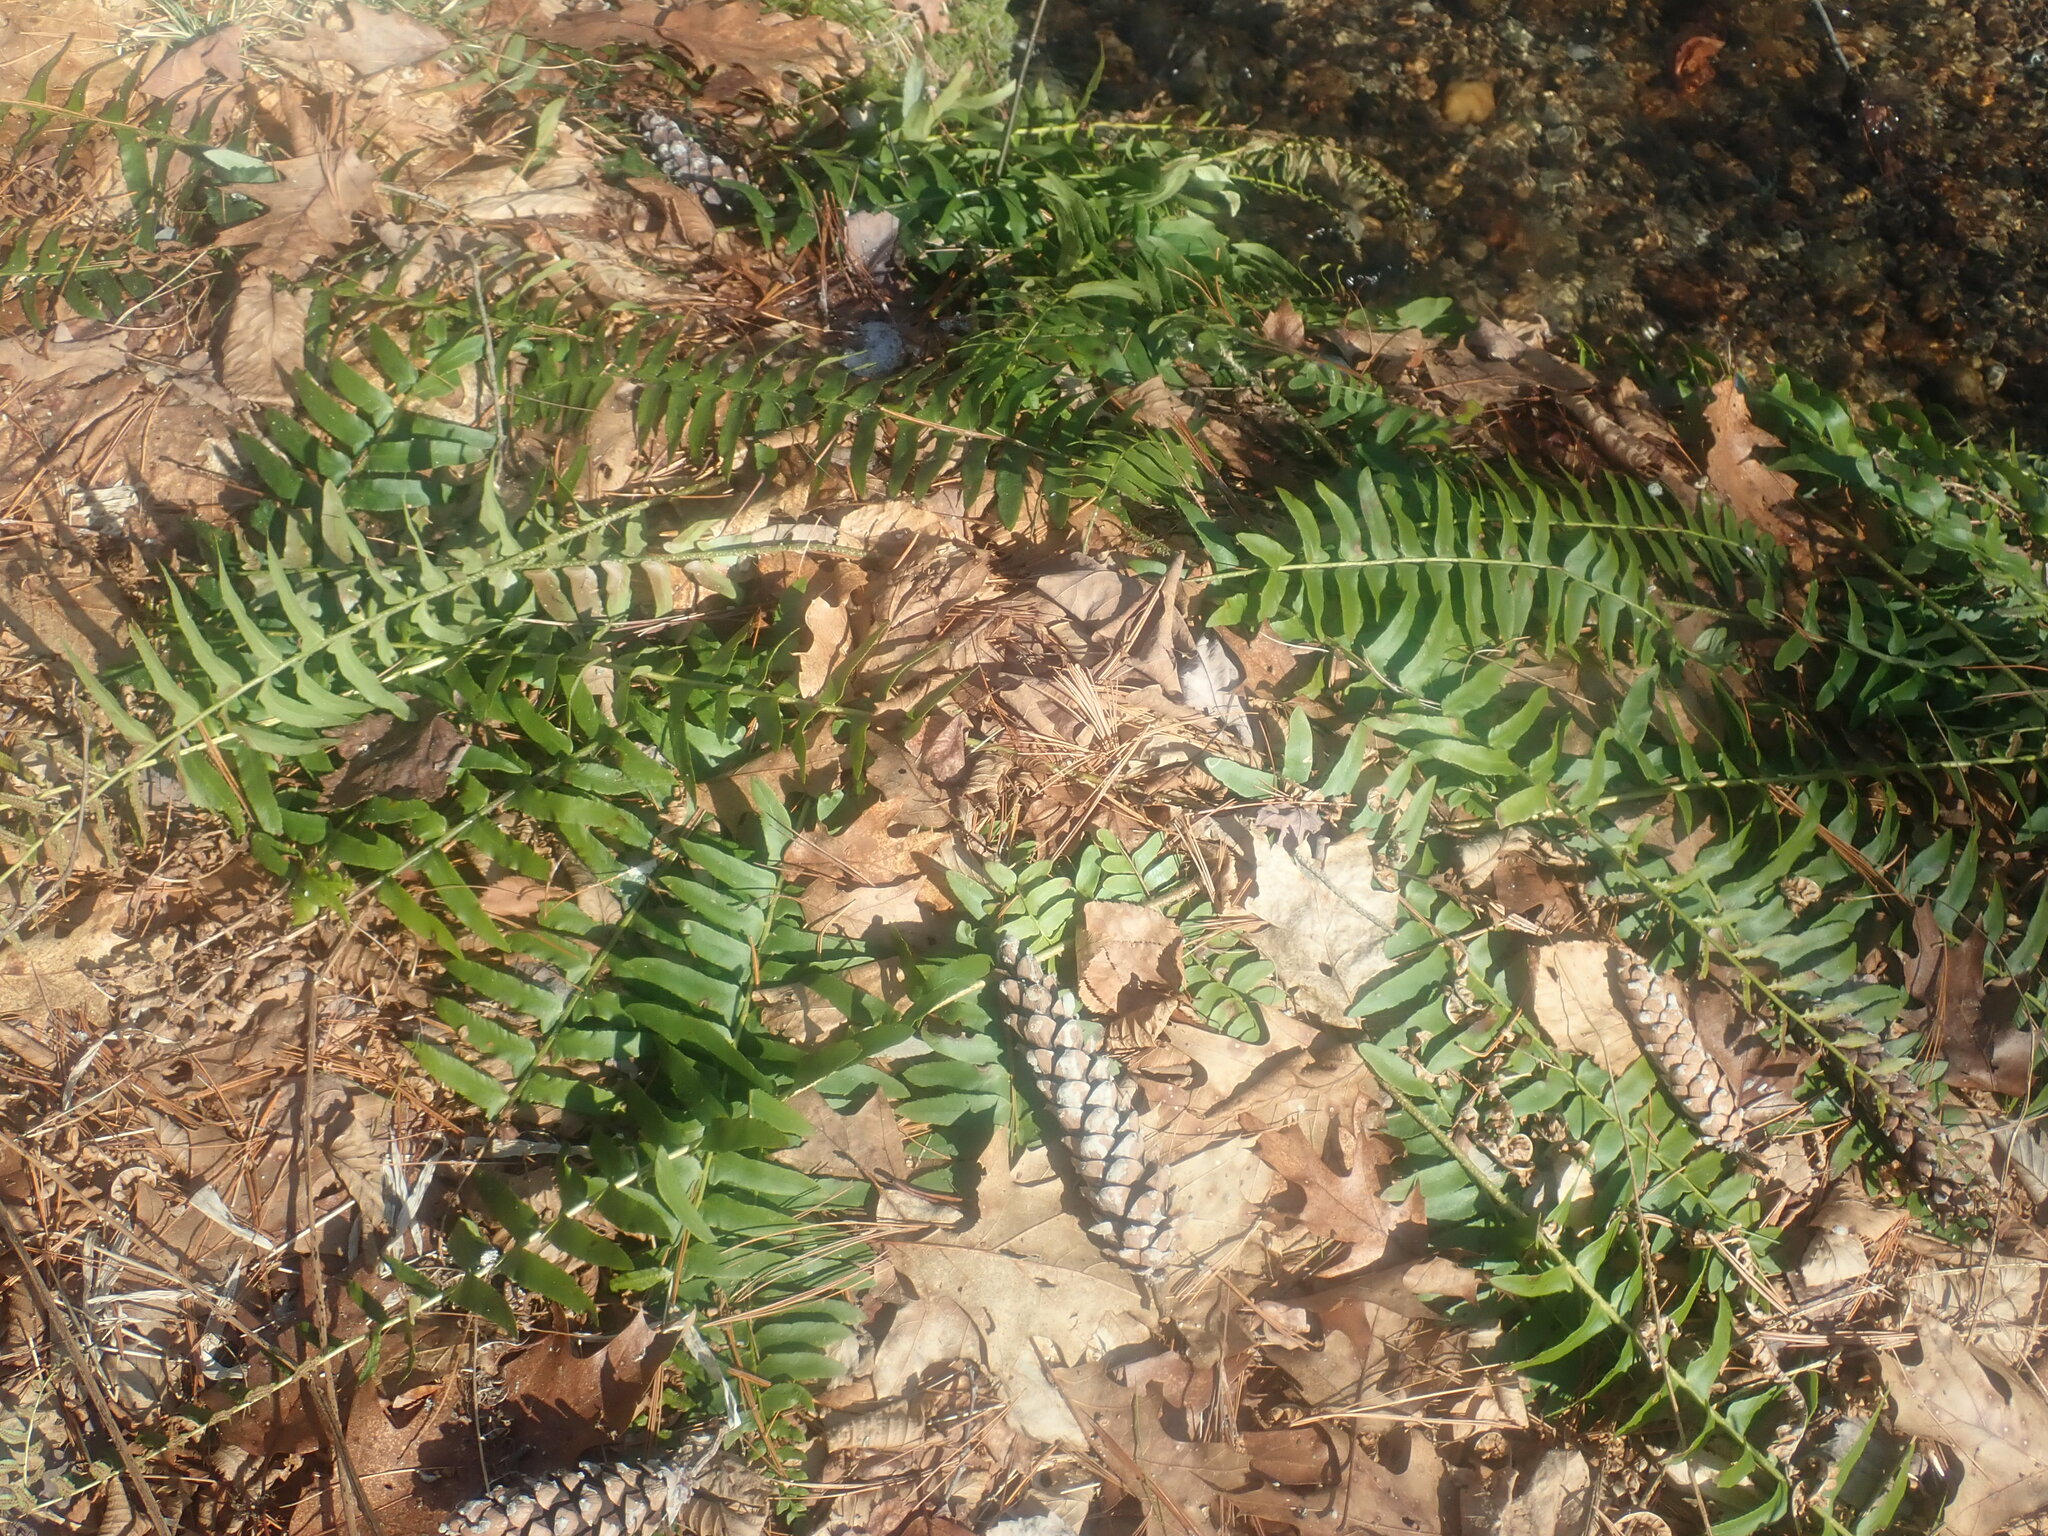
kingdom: Plantae
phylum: Tracheophyta
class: Polypodiopsida
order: Polypodiales
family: Dryopteridaceae
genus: Polystichum
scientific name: Polystichum acrostichoides
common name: Christmas fern
